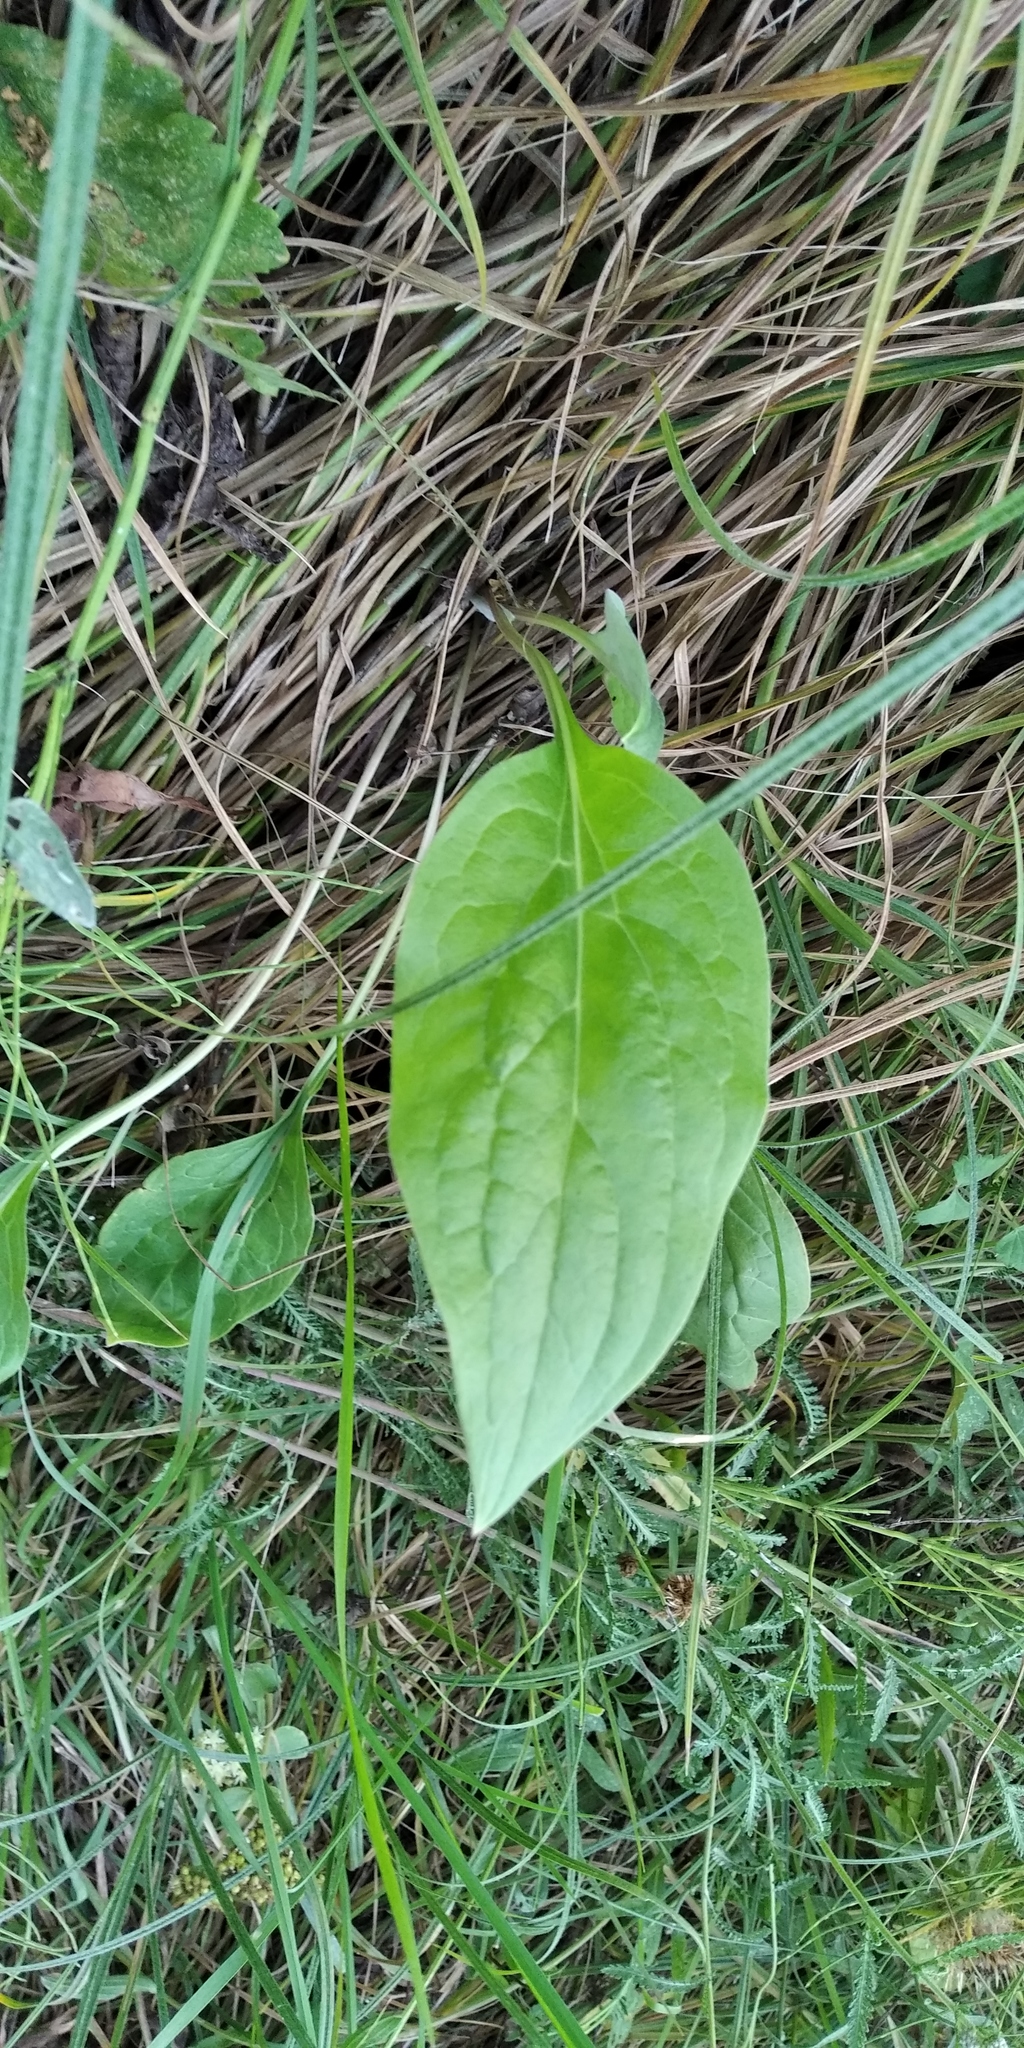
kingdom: Plantae
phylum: Tracheophyta
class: Magnoliopsida
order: Boraginales
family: Boraginaceae
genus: Cynoglossum
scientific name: Cynoglossum officinale
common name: Hound's-tongue
